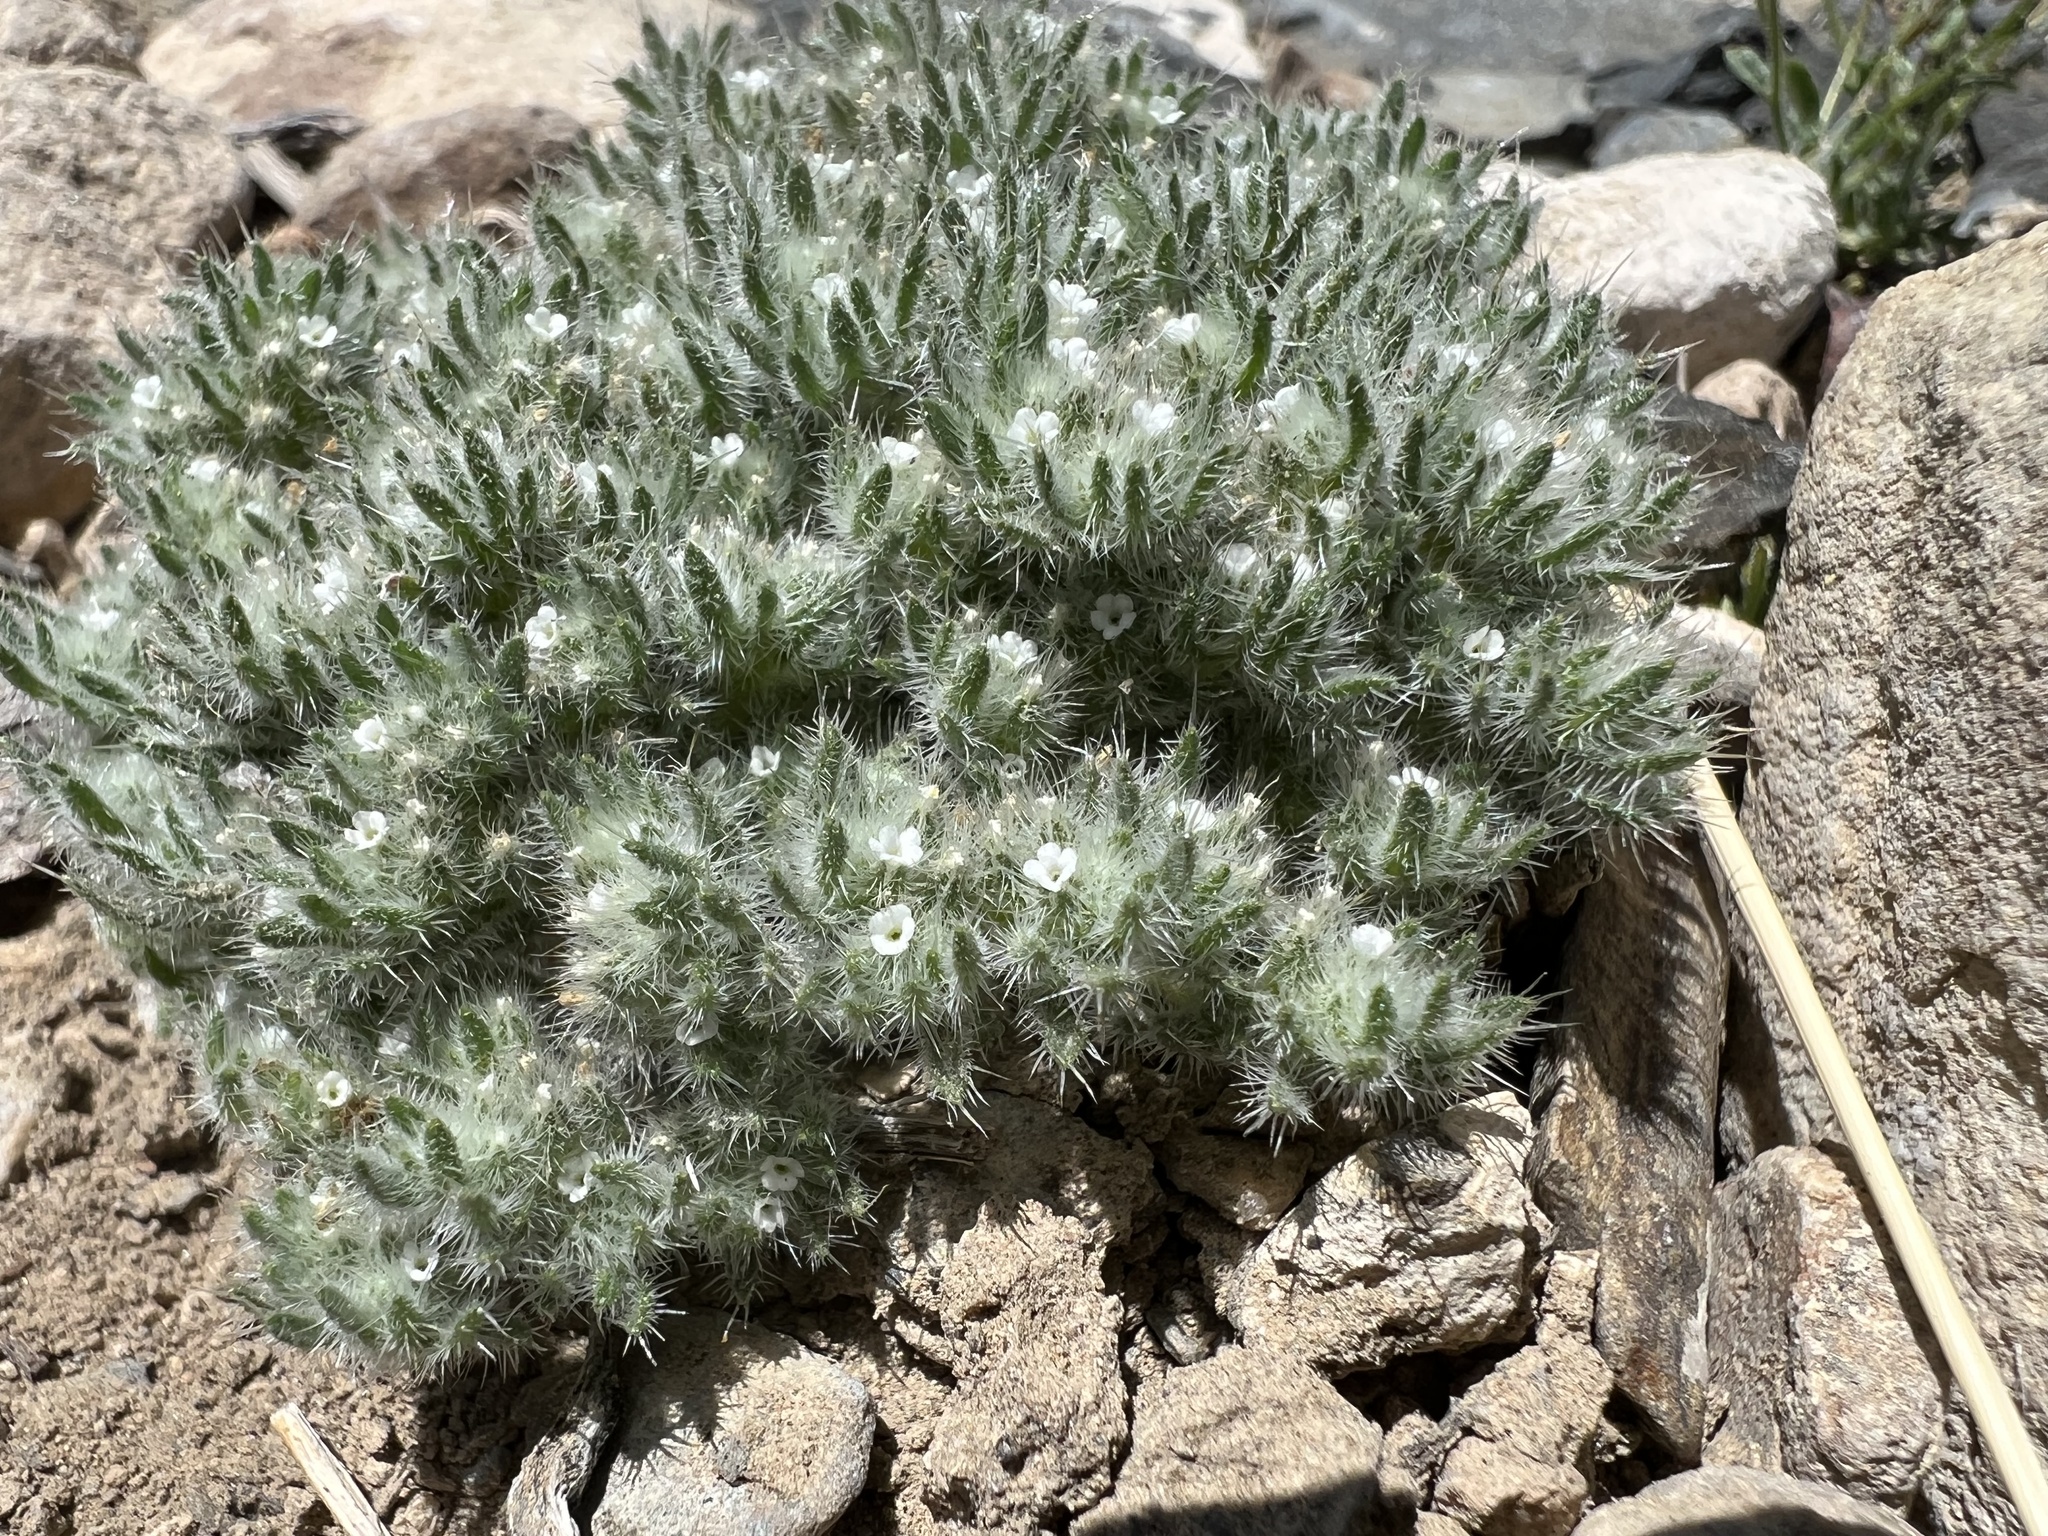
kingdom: Plantae
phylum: Tracheophyta
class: Magnoliopsida
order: Boraginales
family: Boraginaceae
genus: Greeneocharis
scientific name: Greeneocharis circumscissa
